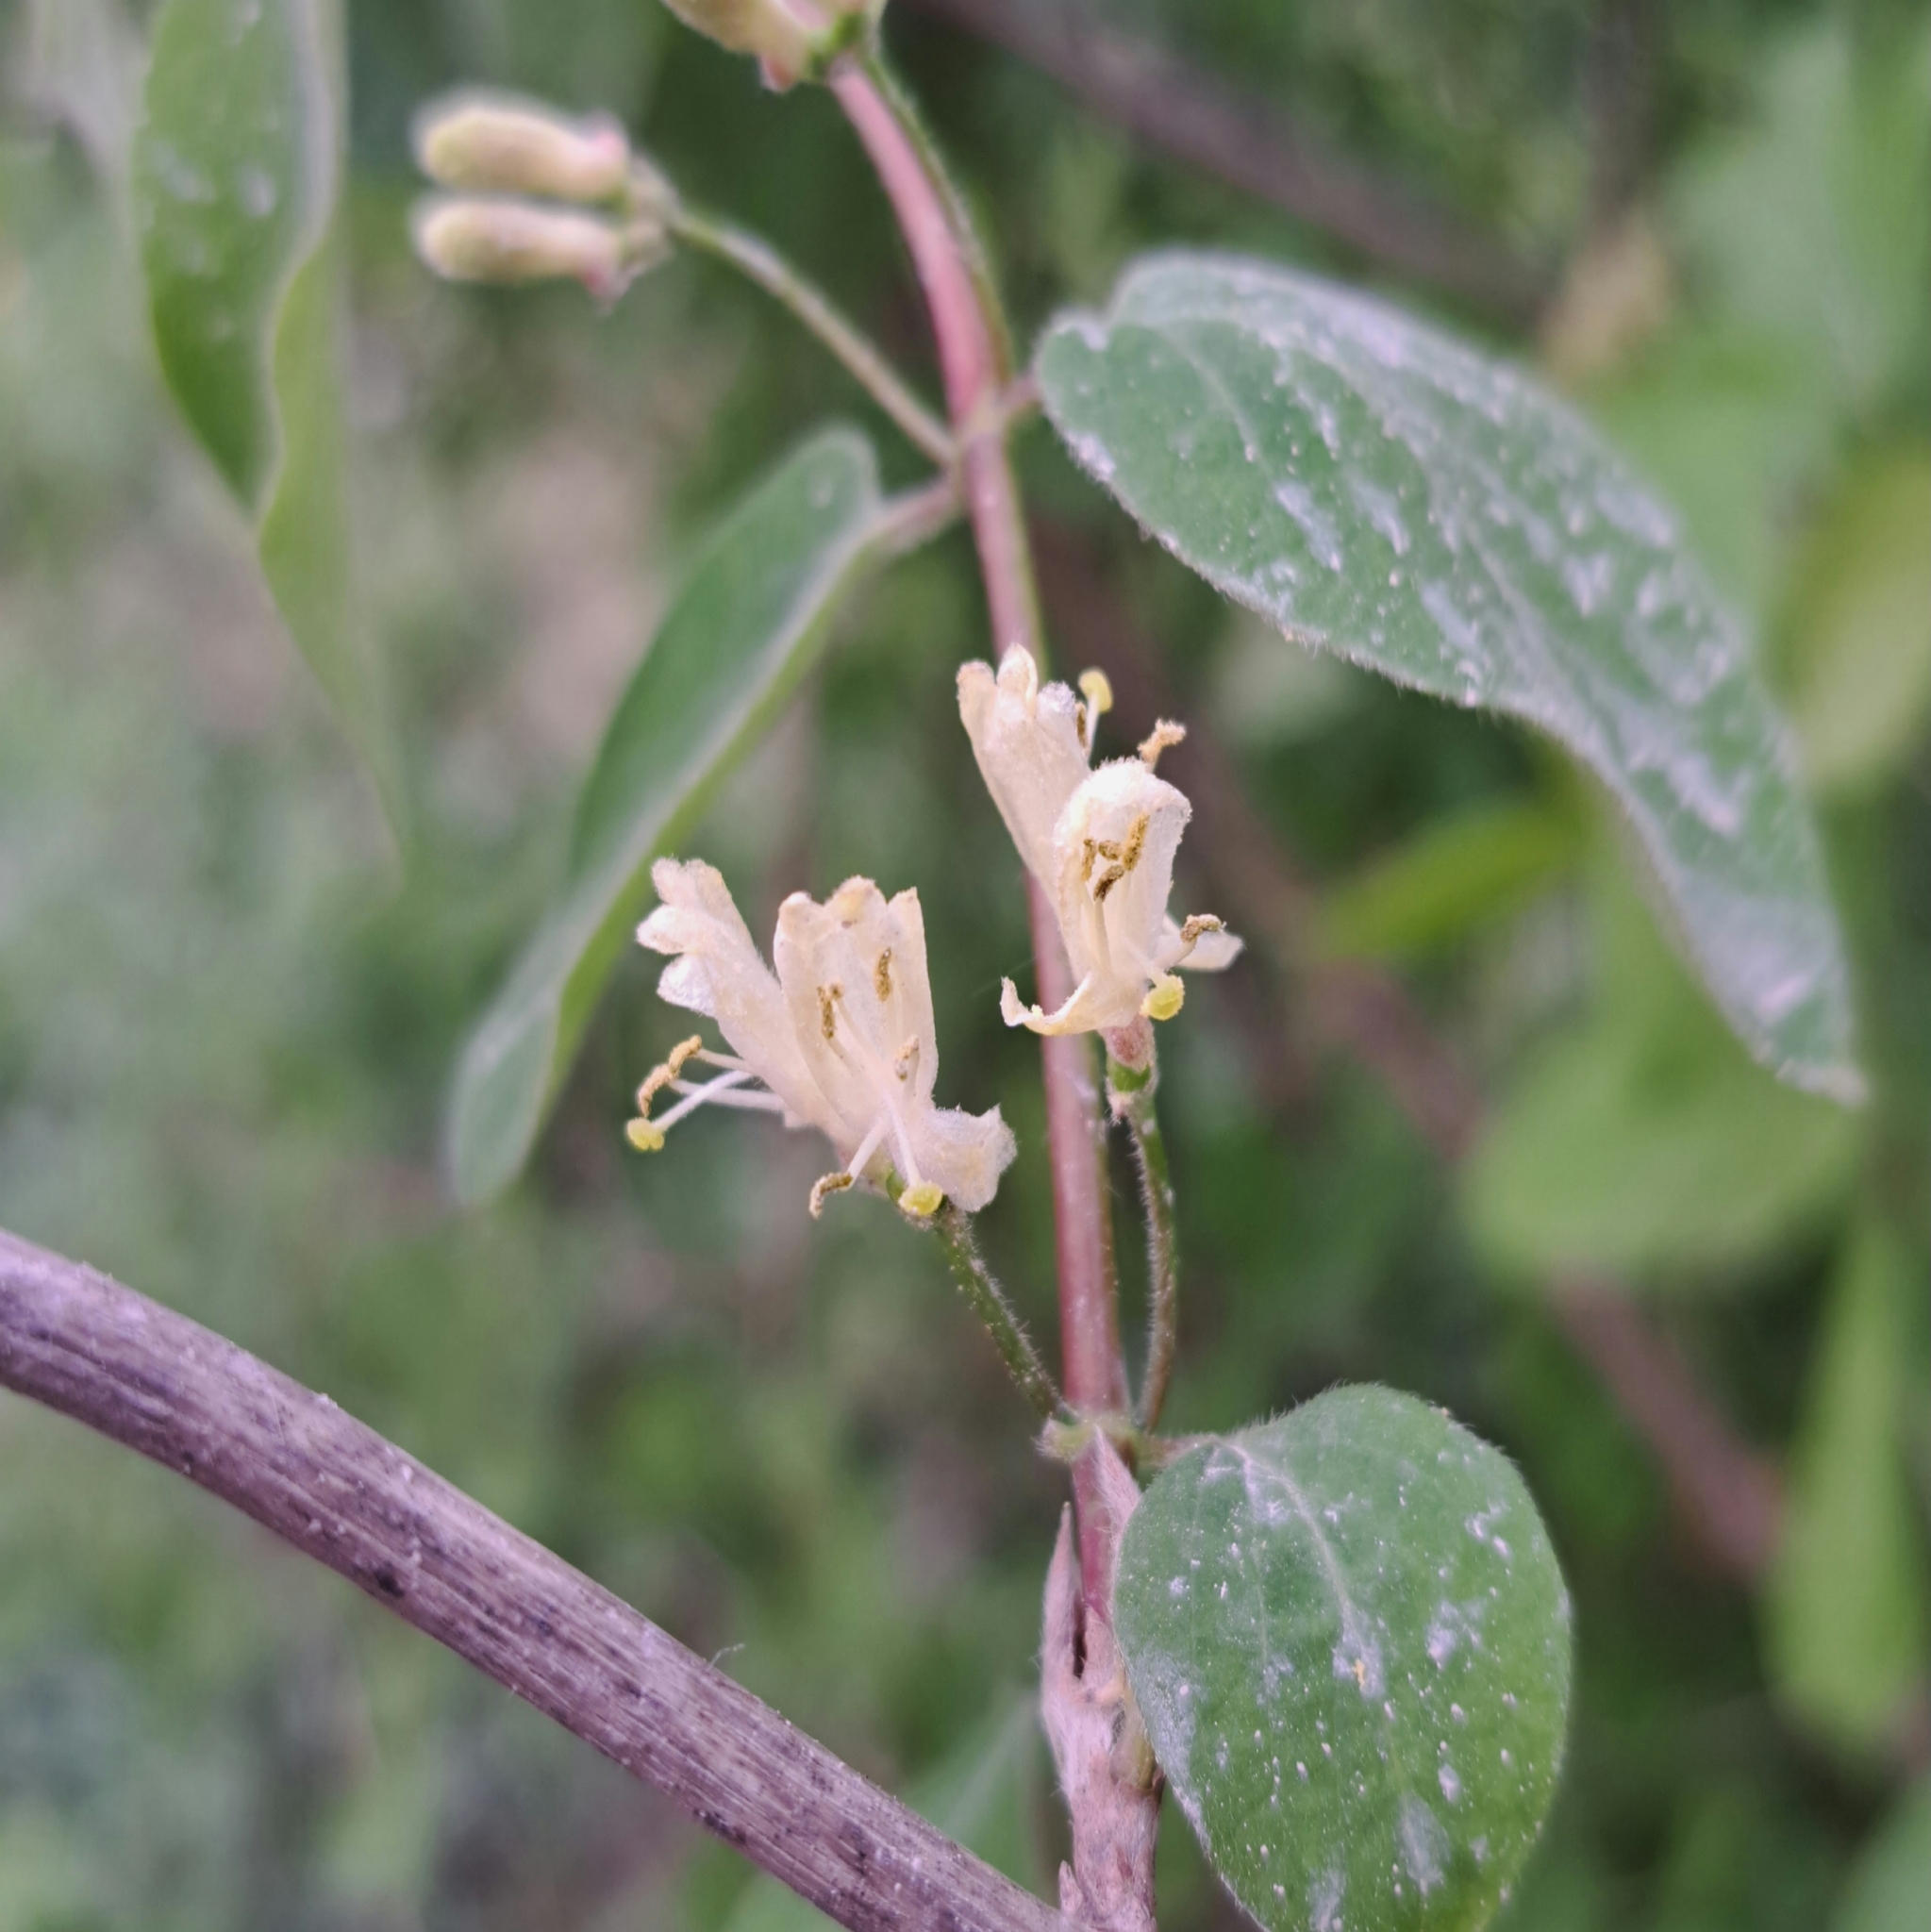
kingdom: Plantae
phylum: Tracheophyta
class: Magnoliopsida
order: Dipsacales
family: Caprifoliaceae
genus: Lonicera
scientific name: Lonicera xylosteum
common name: Fly honeysuckle
